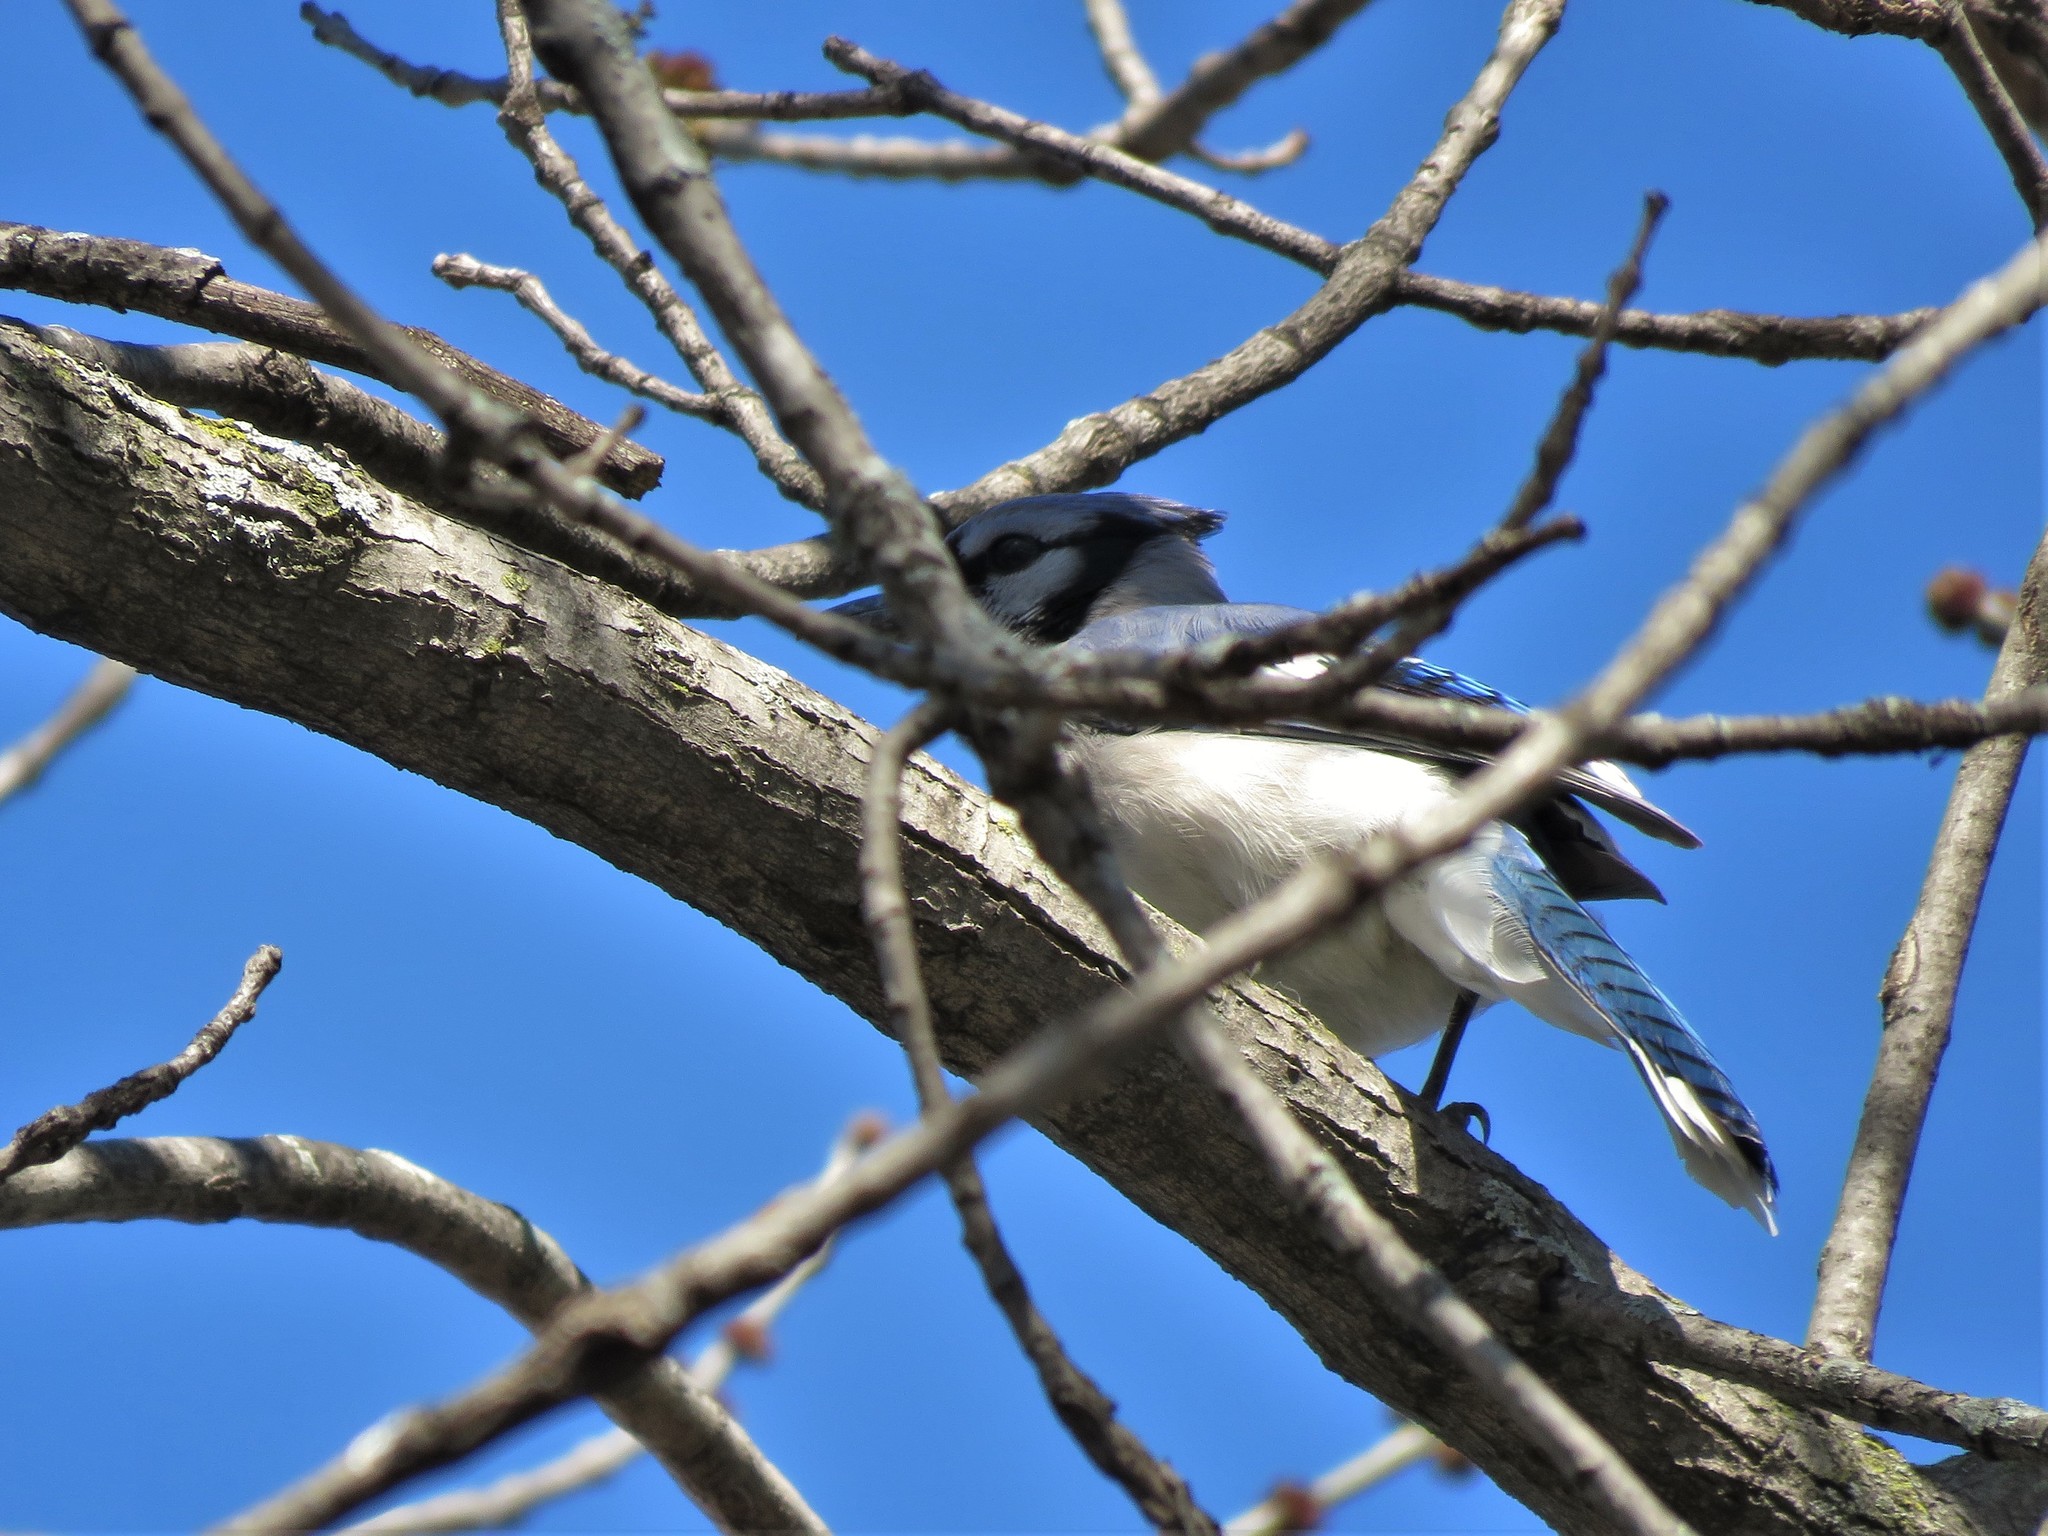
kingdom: Animalia
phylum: Chordata
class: Aves
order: Passeriformes
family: Corvidae
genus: Cyanocitta
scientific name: Cyanocitta cristata
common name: Blue jay
